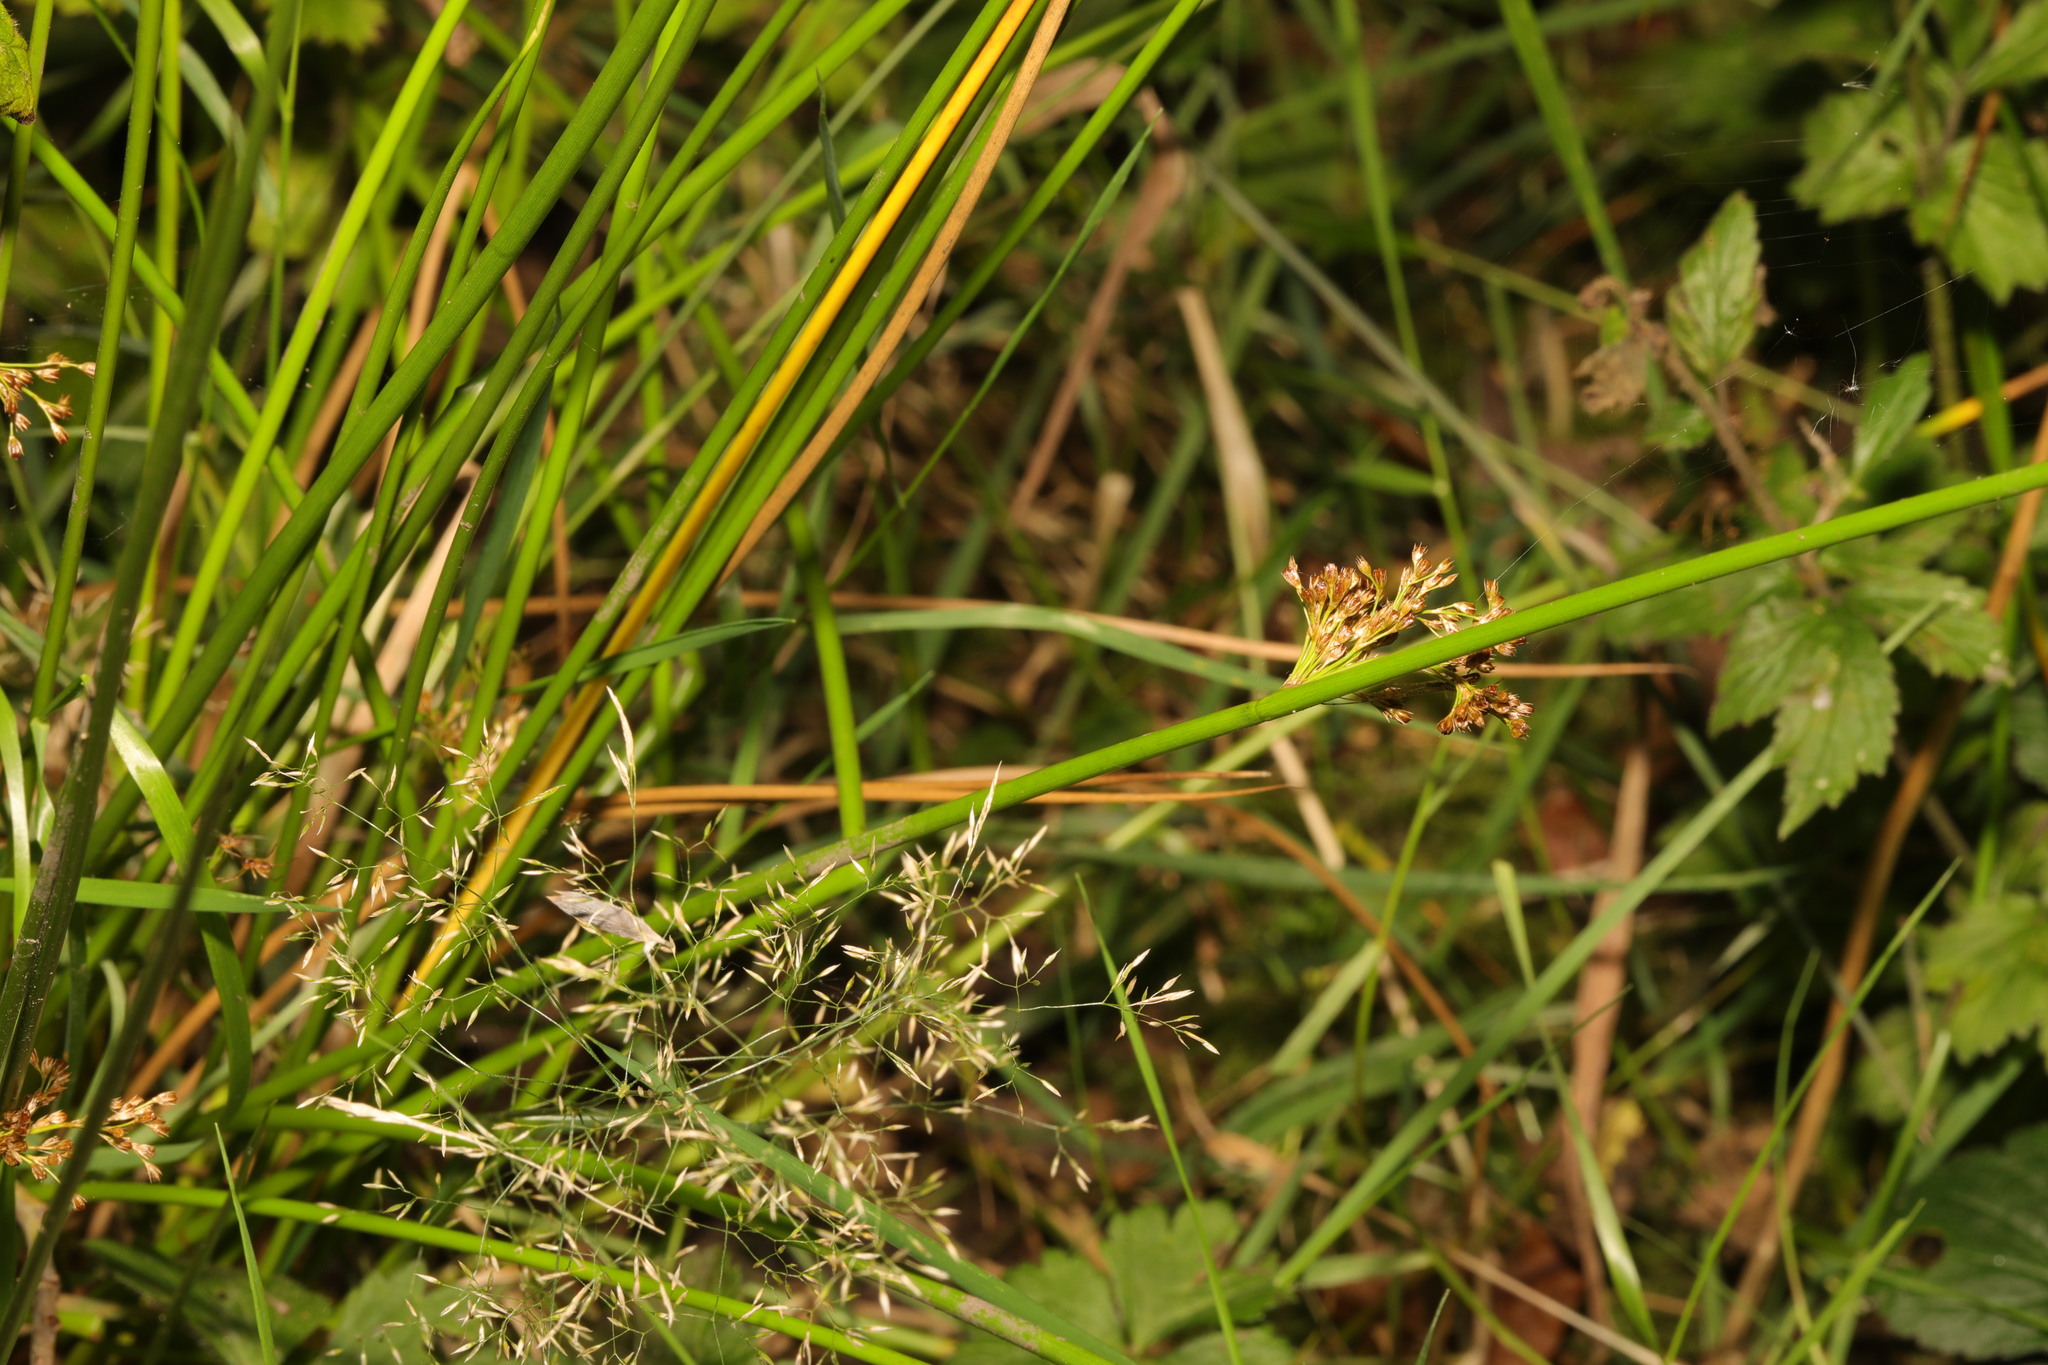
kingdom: Plantae
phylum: Tracheophyta
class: Liliopsida
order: Poales
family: Juncaceae
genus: Juncus
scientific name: Juncus effusus
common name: Soft rush
